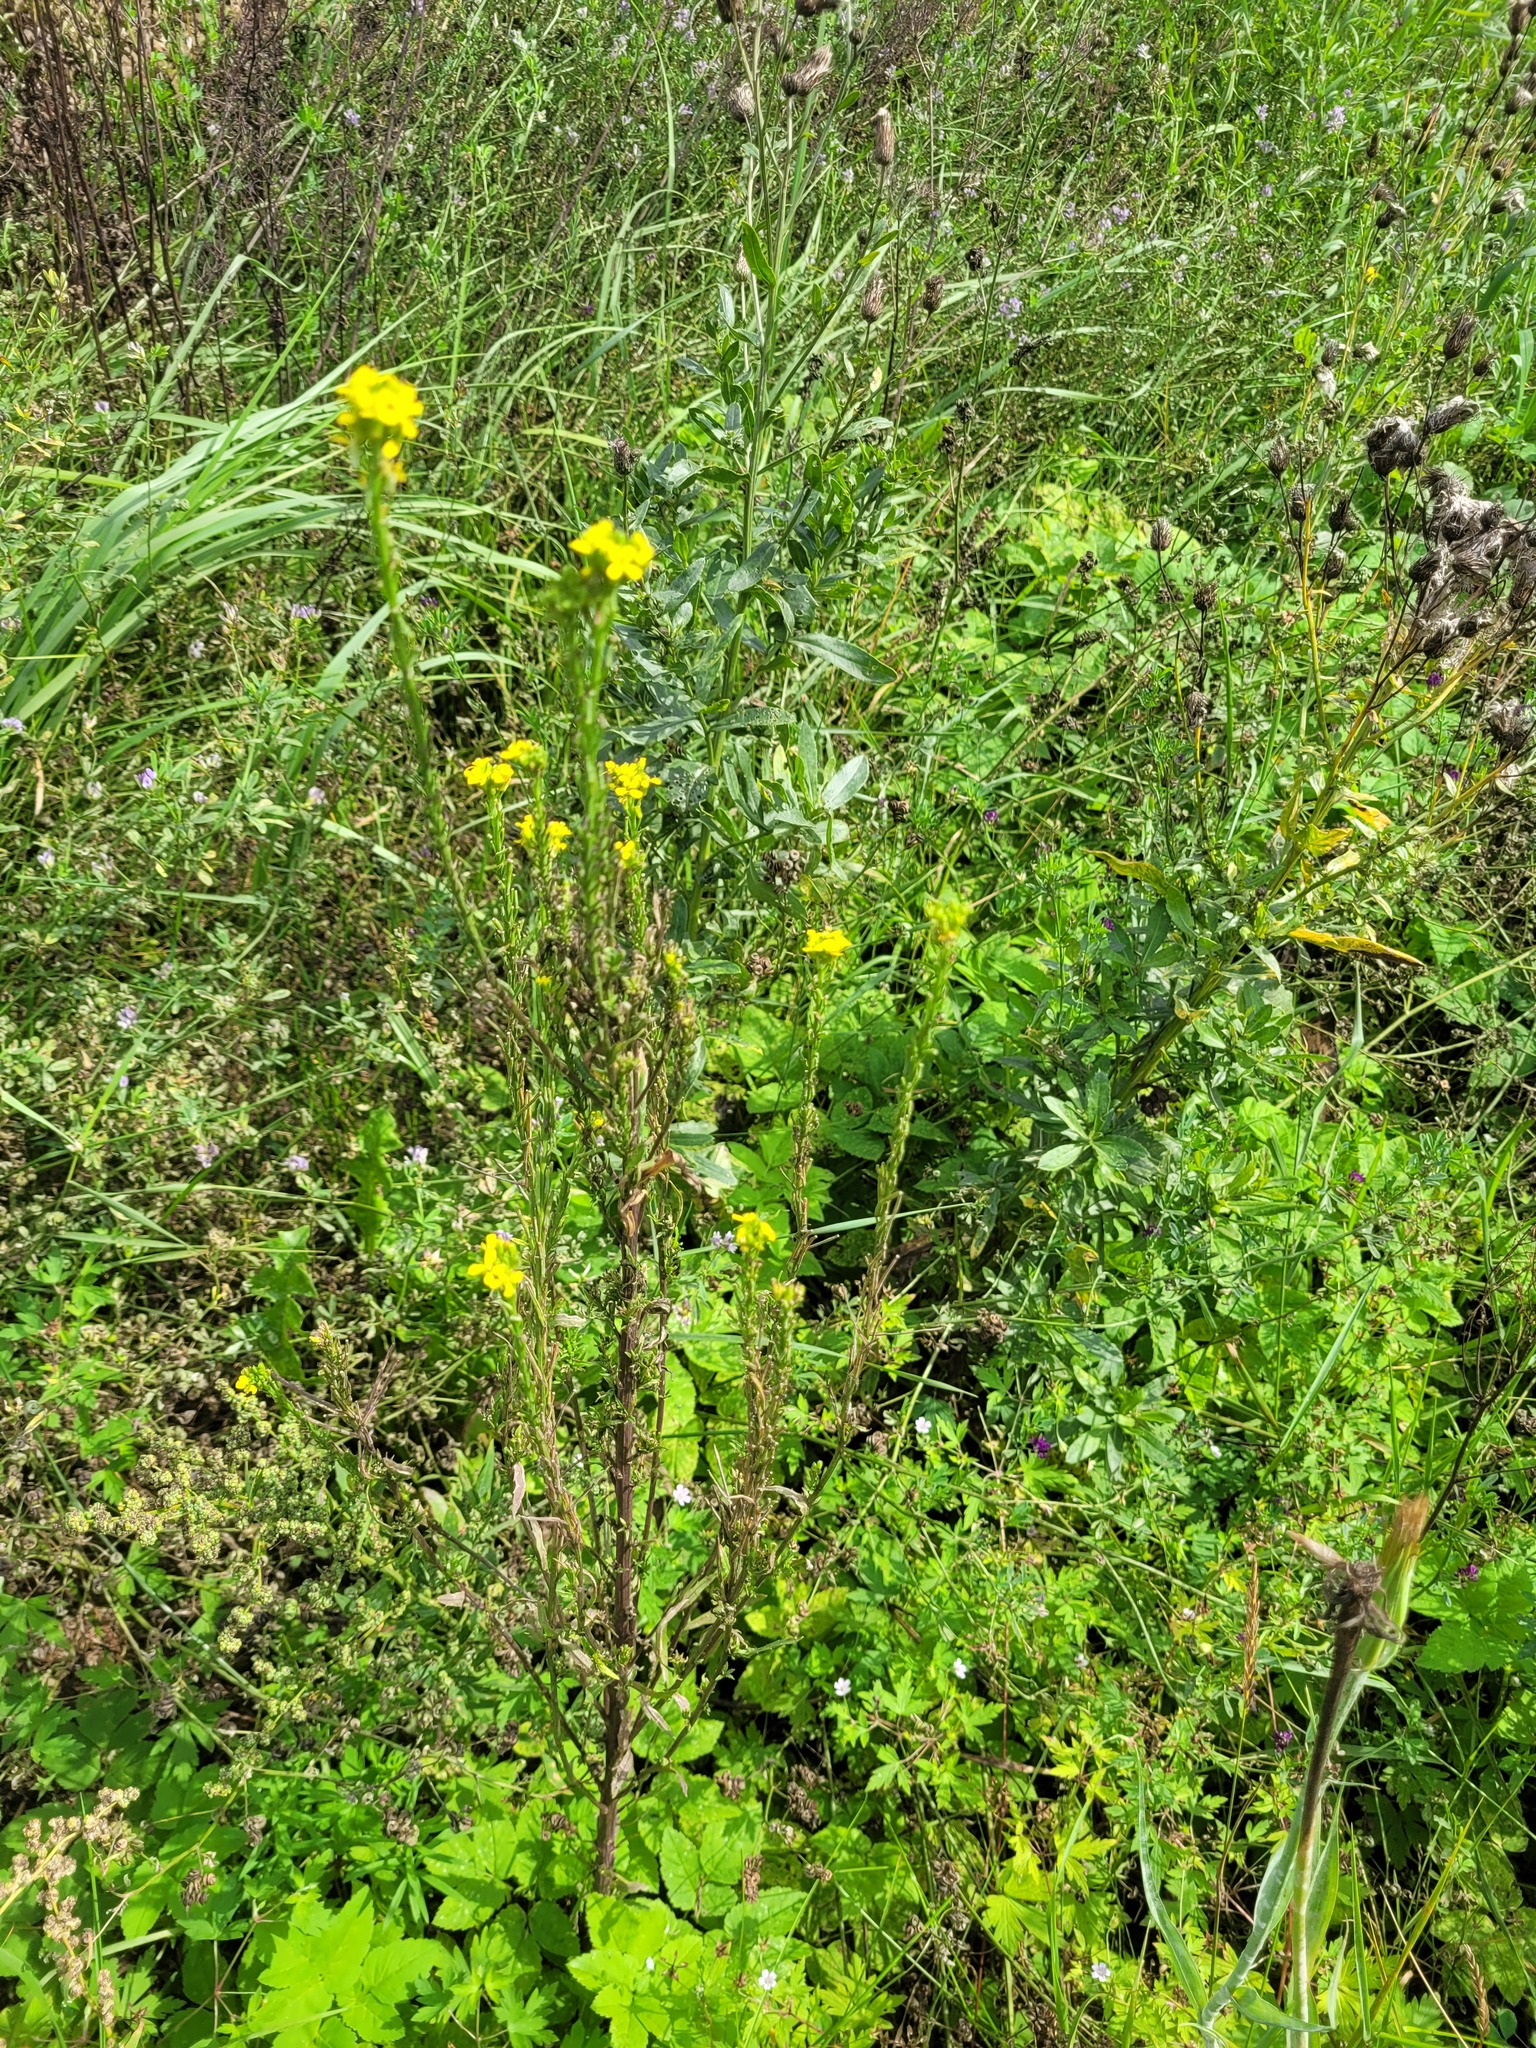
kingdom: Plantae
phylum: Tracheophyta
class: Magnoliopsida
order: Brassicales
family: Brassicaceae
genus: Erysimum
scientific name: Erysimum hieraciifolium
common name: European wallflower
